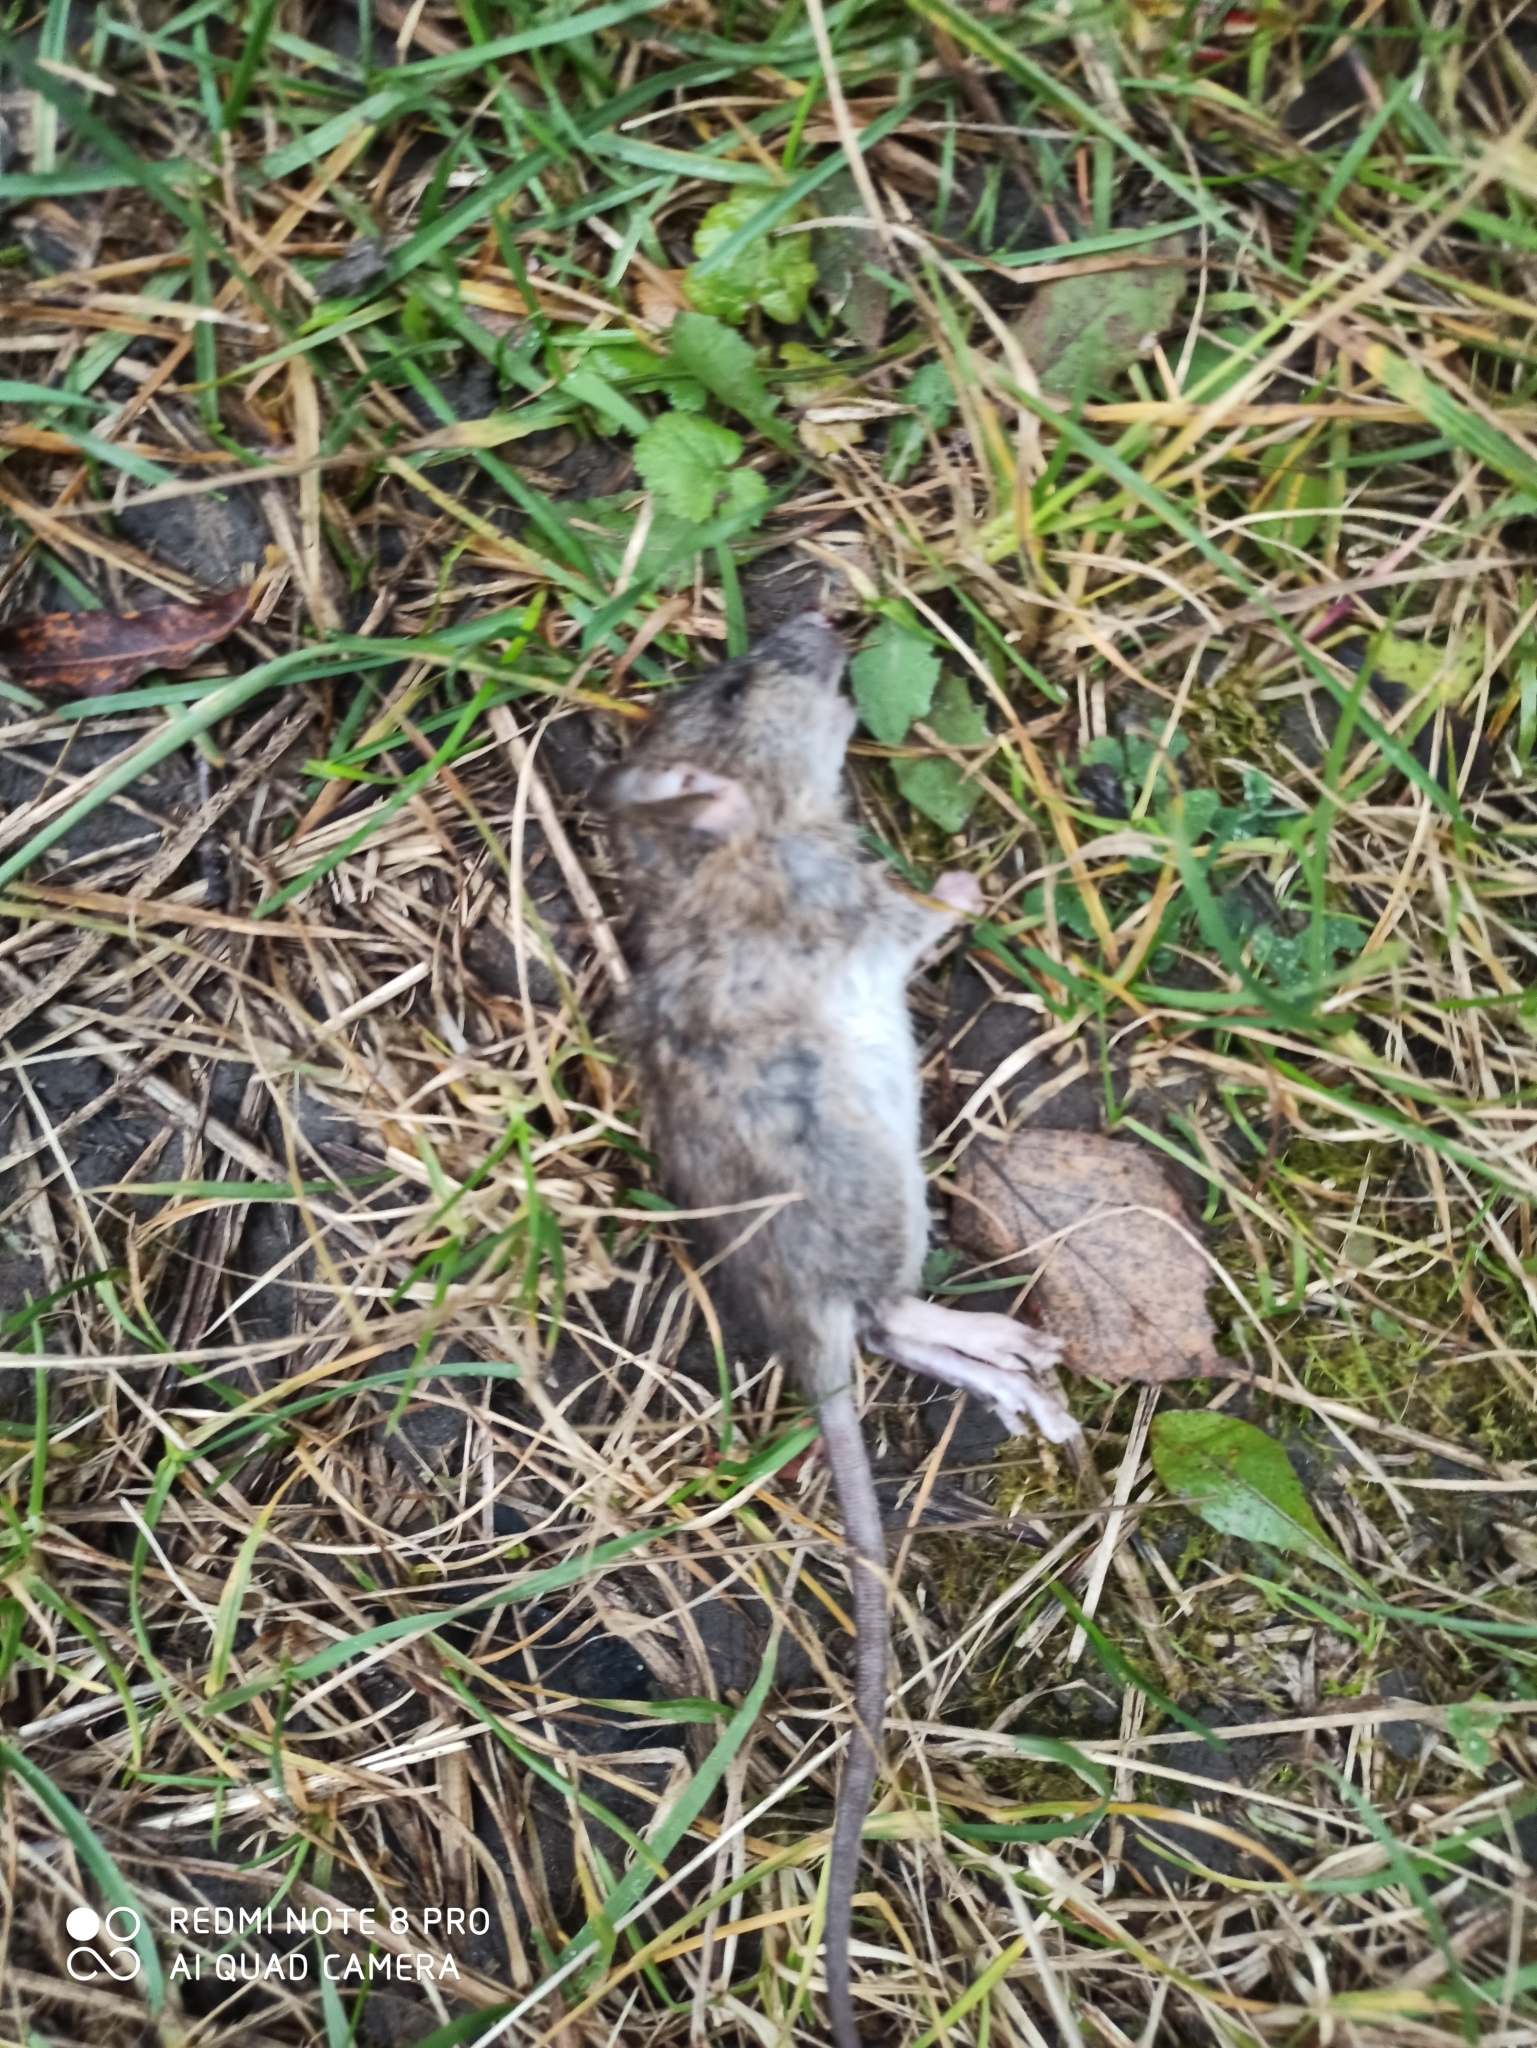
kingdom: Animalia
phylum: Chordata
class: Mammalia
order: Rodentia
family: Muridae
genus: Rattus
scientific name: Rattus norvegicus
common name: Brown rat
